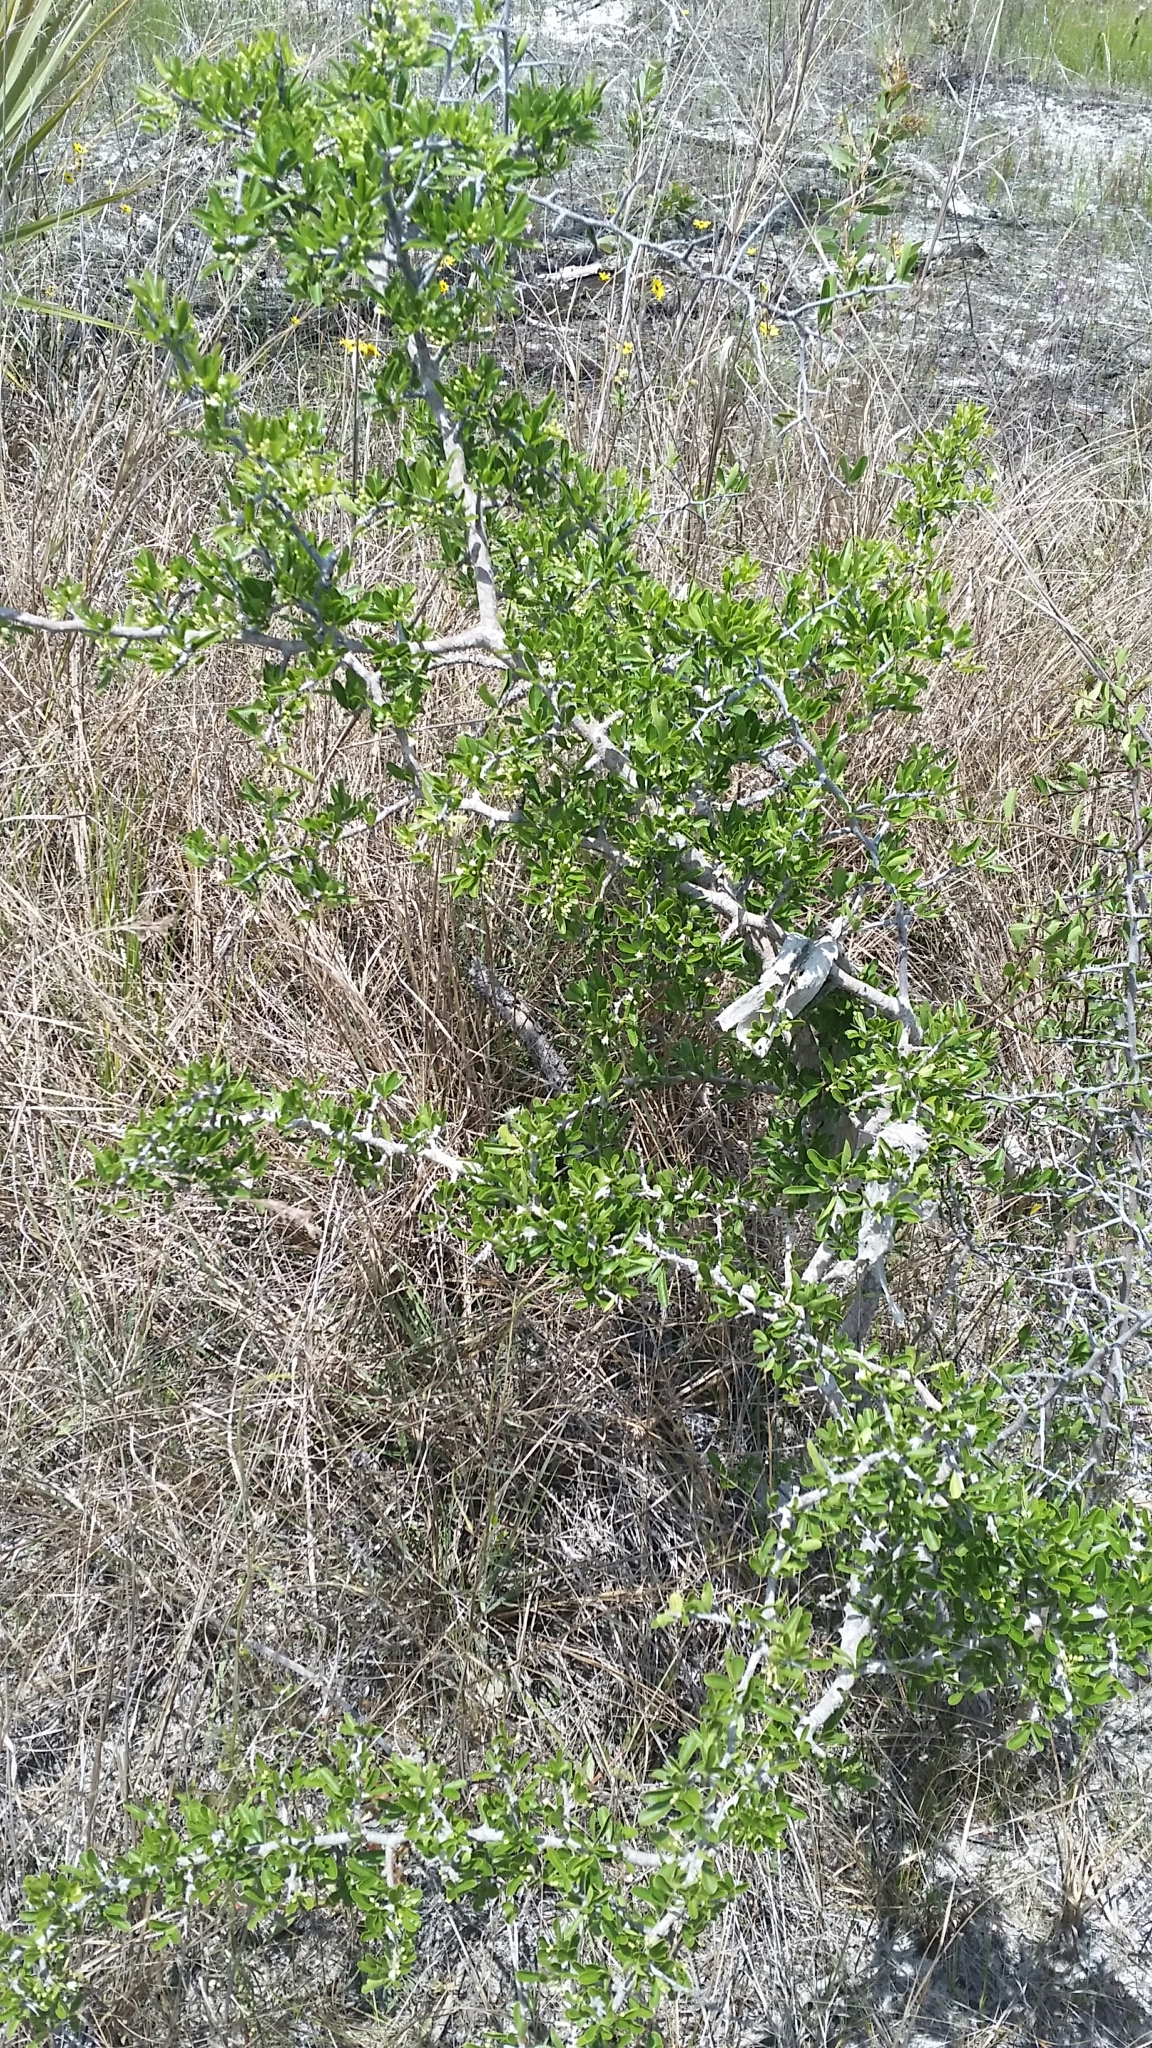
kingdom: Plantae
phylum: Tracheophyta
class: Magnoliopsida
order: Ericales
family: Sapotaceae
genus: Sideroxylon
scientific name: Sideroxylon reclinatum
